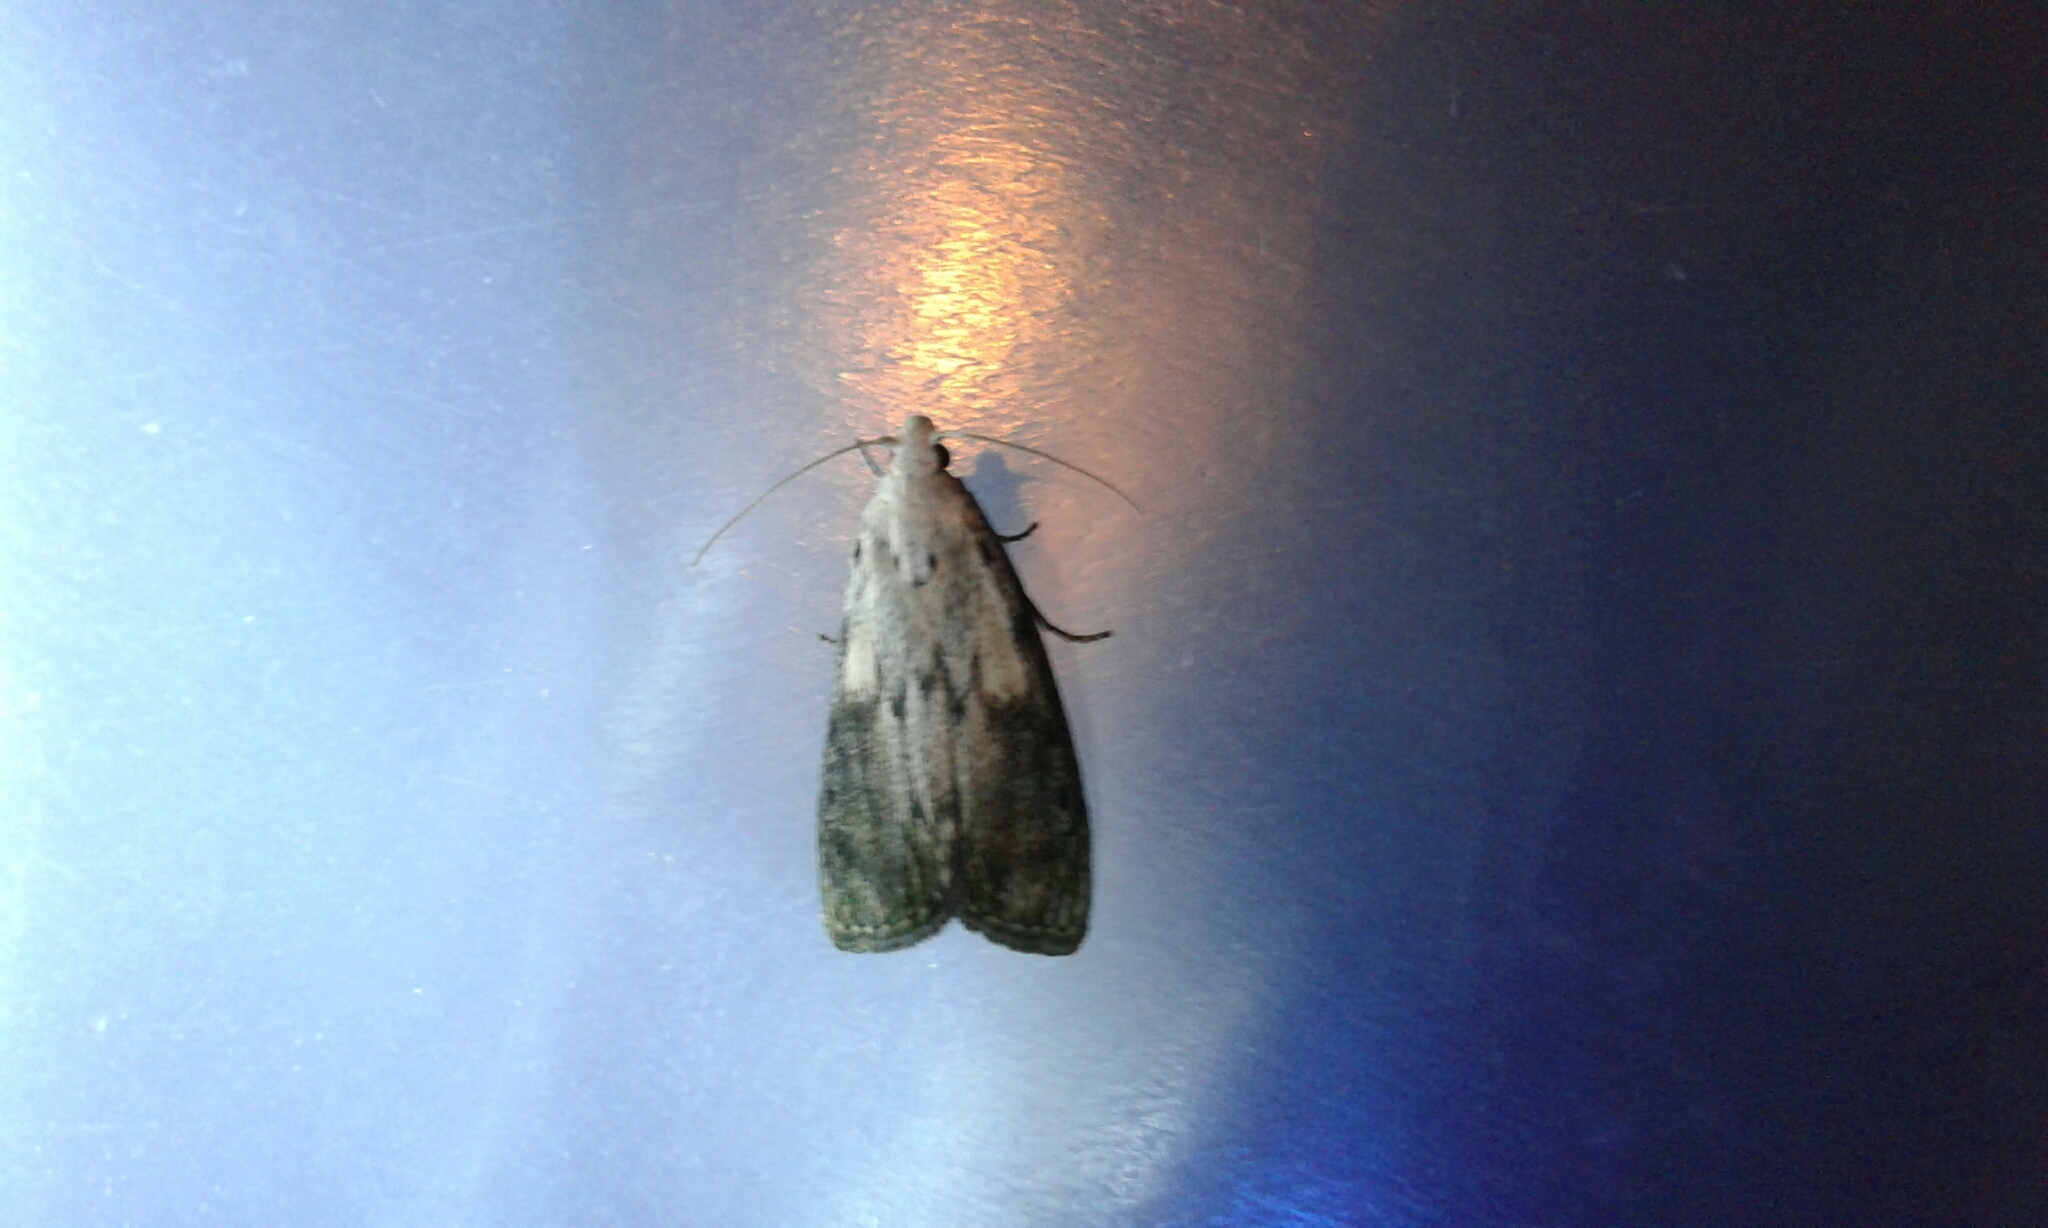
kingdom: Animalia
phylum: Arthropoda
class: Insecta
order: Lepidoptera
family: Pyralidae
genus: Aphomia
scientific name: Aphomia sociella
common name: Bee moth
